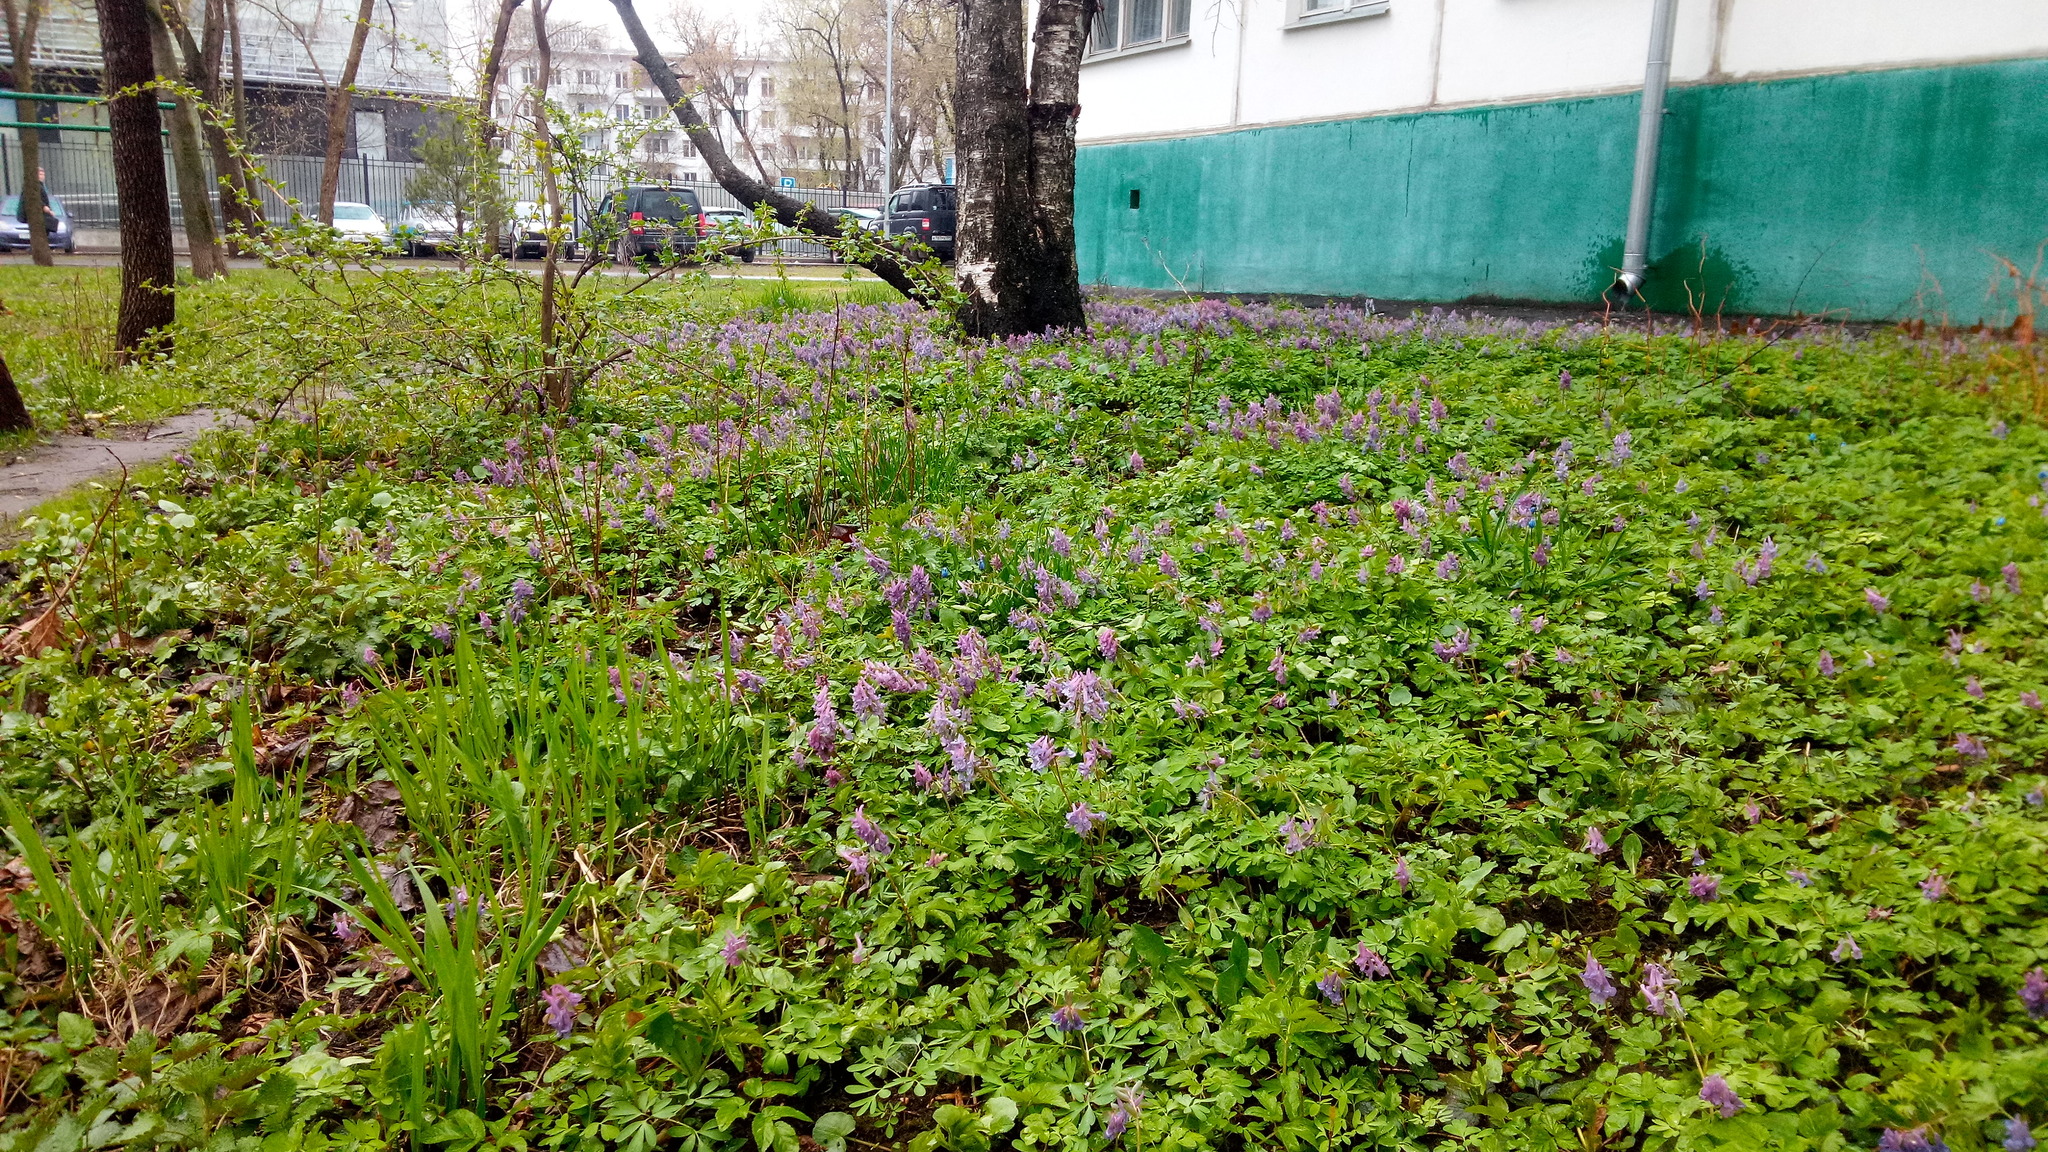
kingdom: Plantae
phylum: Tracheophyta
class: Magnoliopsida
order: Ranunculales
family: Papaveraceae
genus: Corydalis
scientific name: Corydalis solida
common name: Bird-in-a-bush
